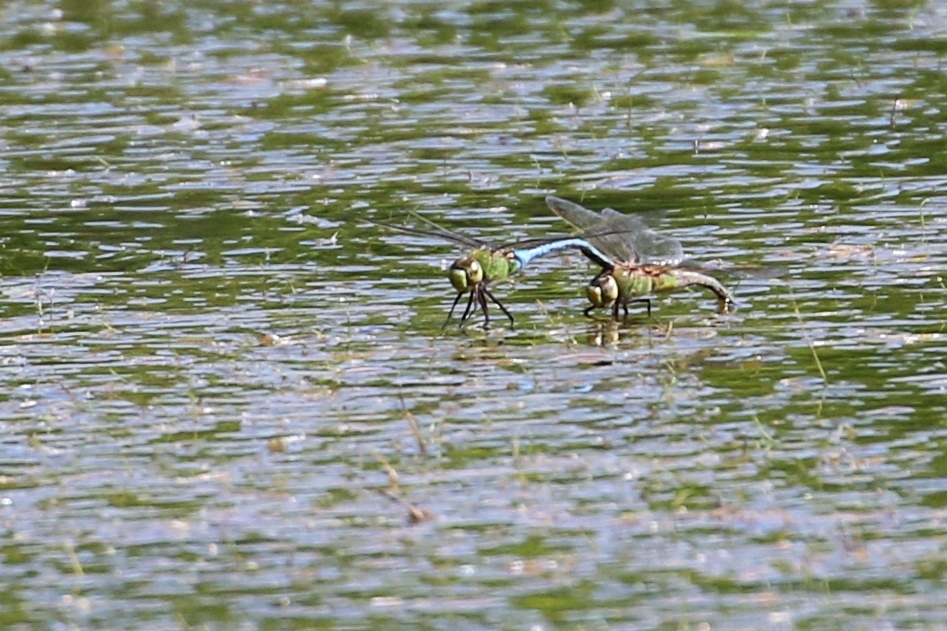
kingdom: Animalia
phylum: Arthropoda
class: Insecta
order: Odonata
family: Aeshnidae
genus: Anax
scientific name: Anax junius
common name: Common green darner
